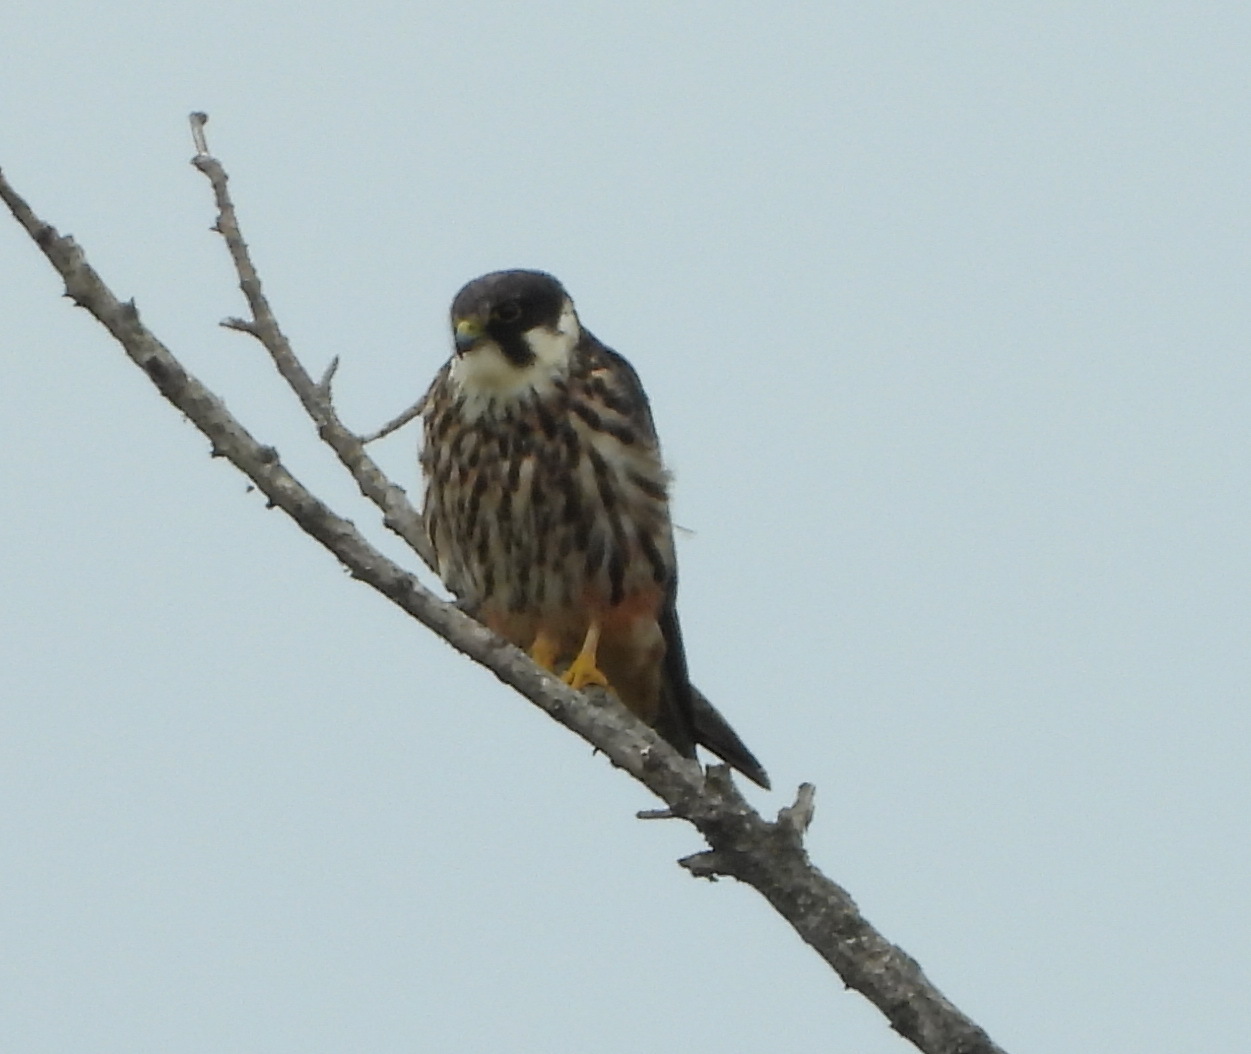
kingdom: Animalia
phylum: Chordata
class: Aves
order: Falconiformes
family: Falconidae
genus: Falco
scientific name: Falco subbuteo
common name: Eurasian hobby
